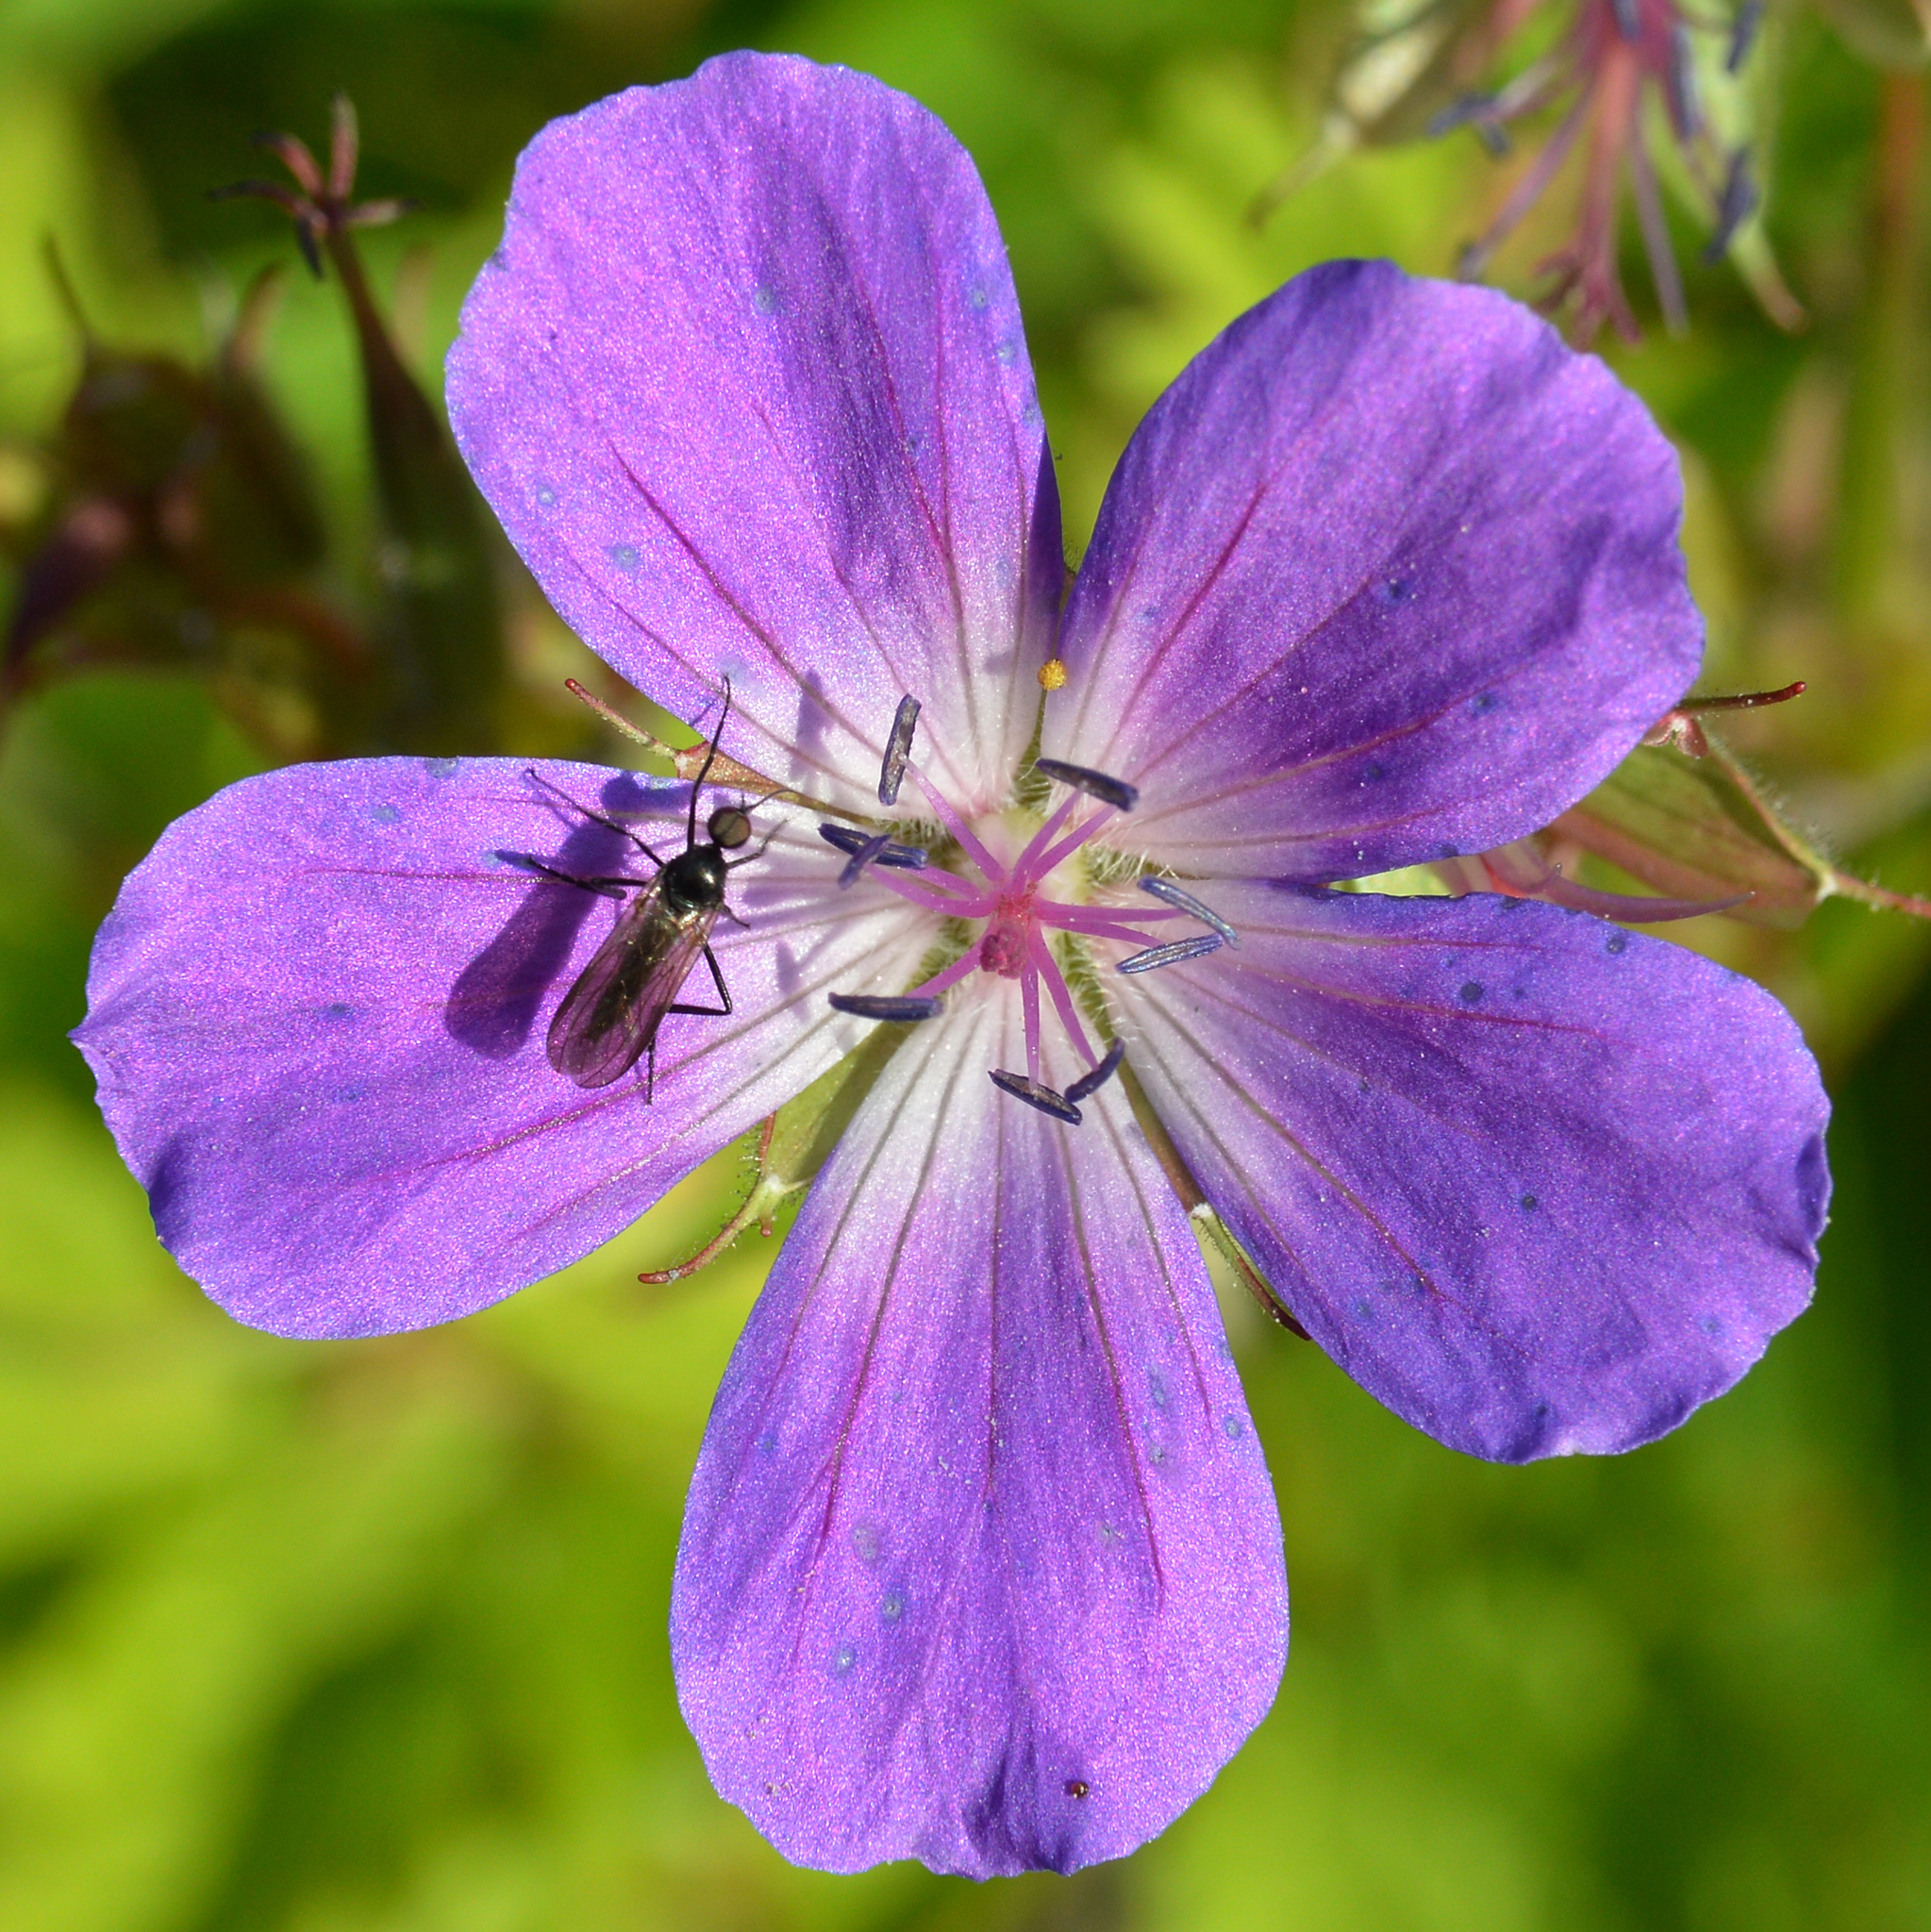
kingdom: Plantae
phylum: Tracheophyta
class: Magnoliopsida
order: Geraniales
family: Geraniaceae
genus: Geranium
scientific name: Geranium sylvaticum
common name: Wood crane's-bill
